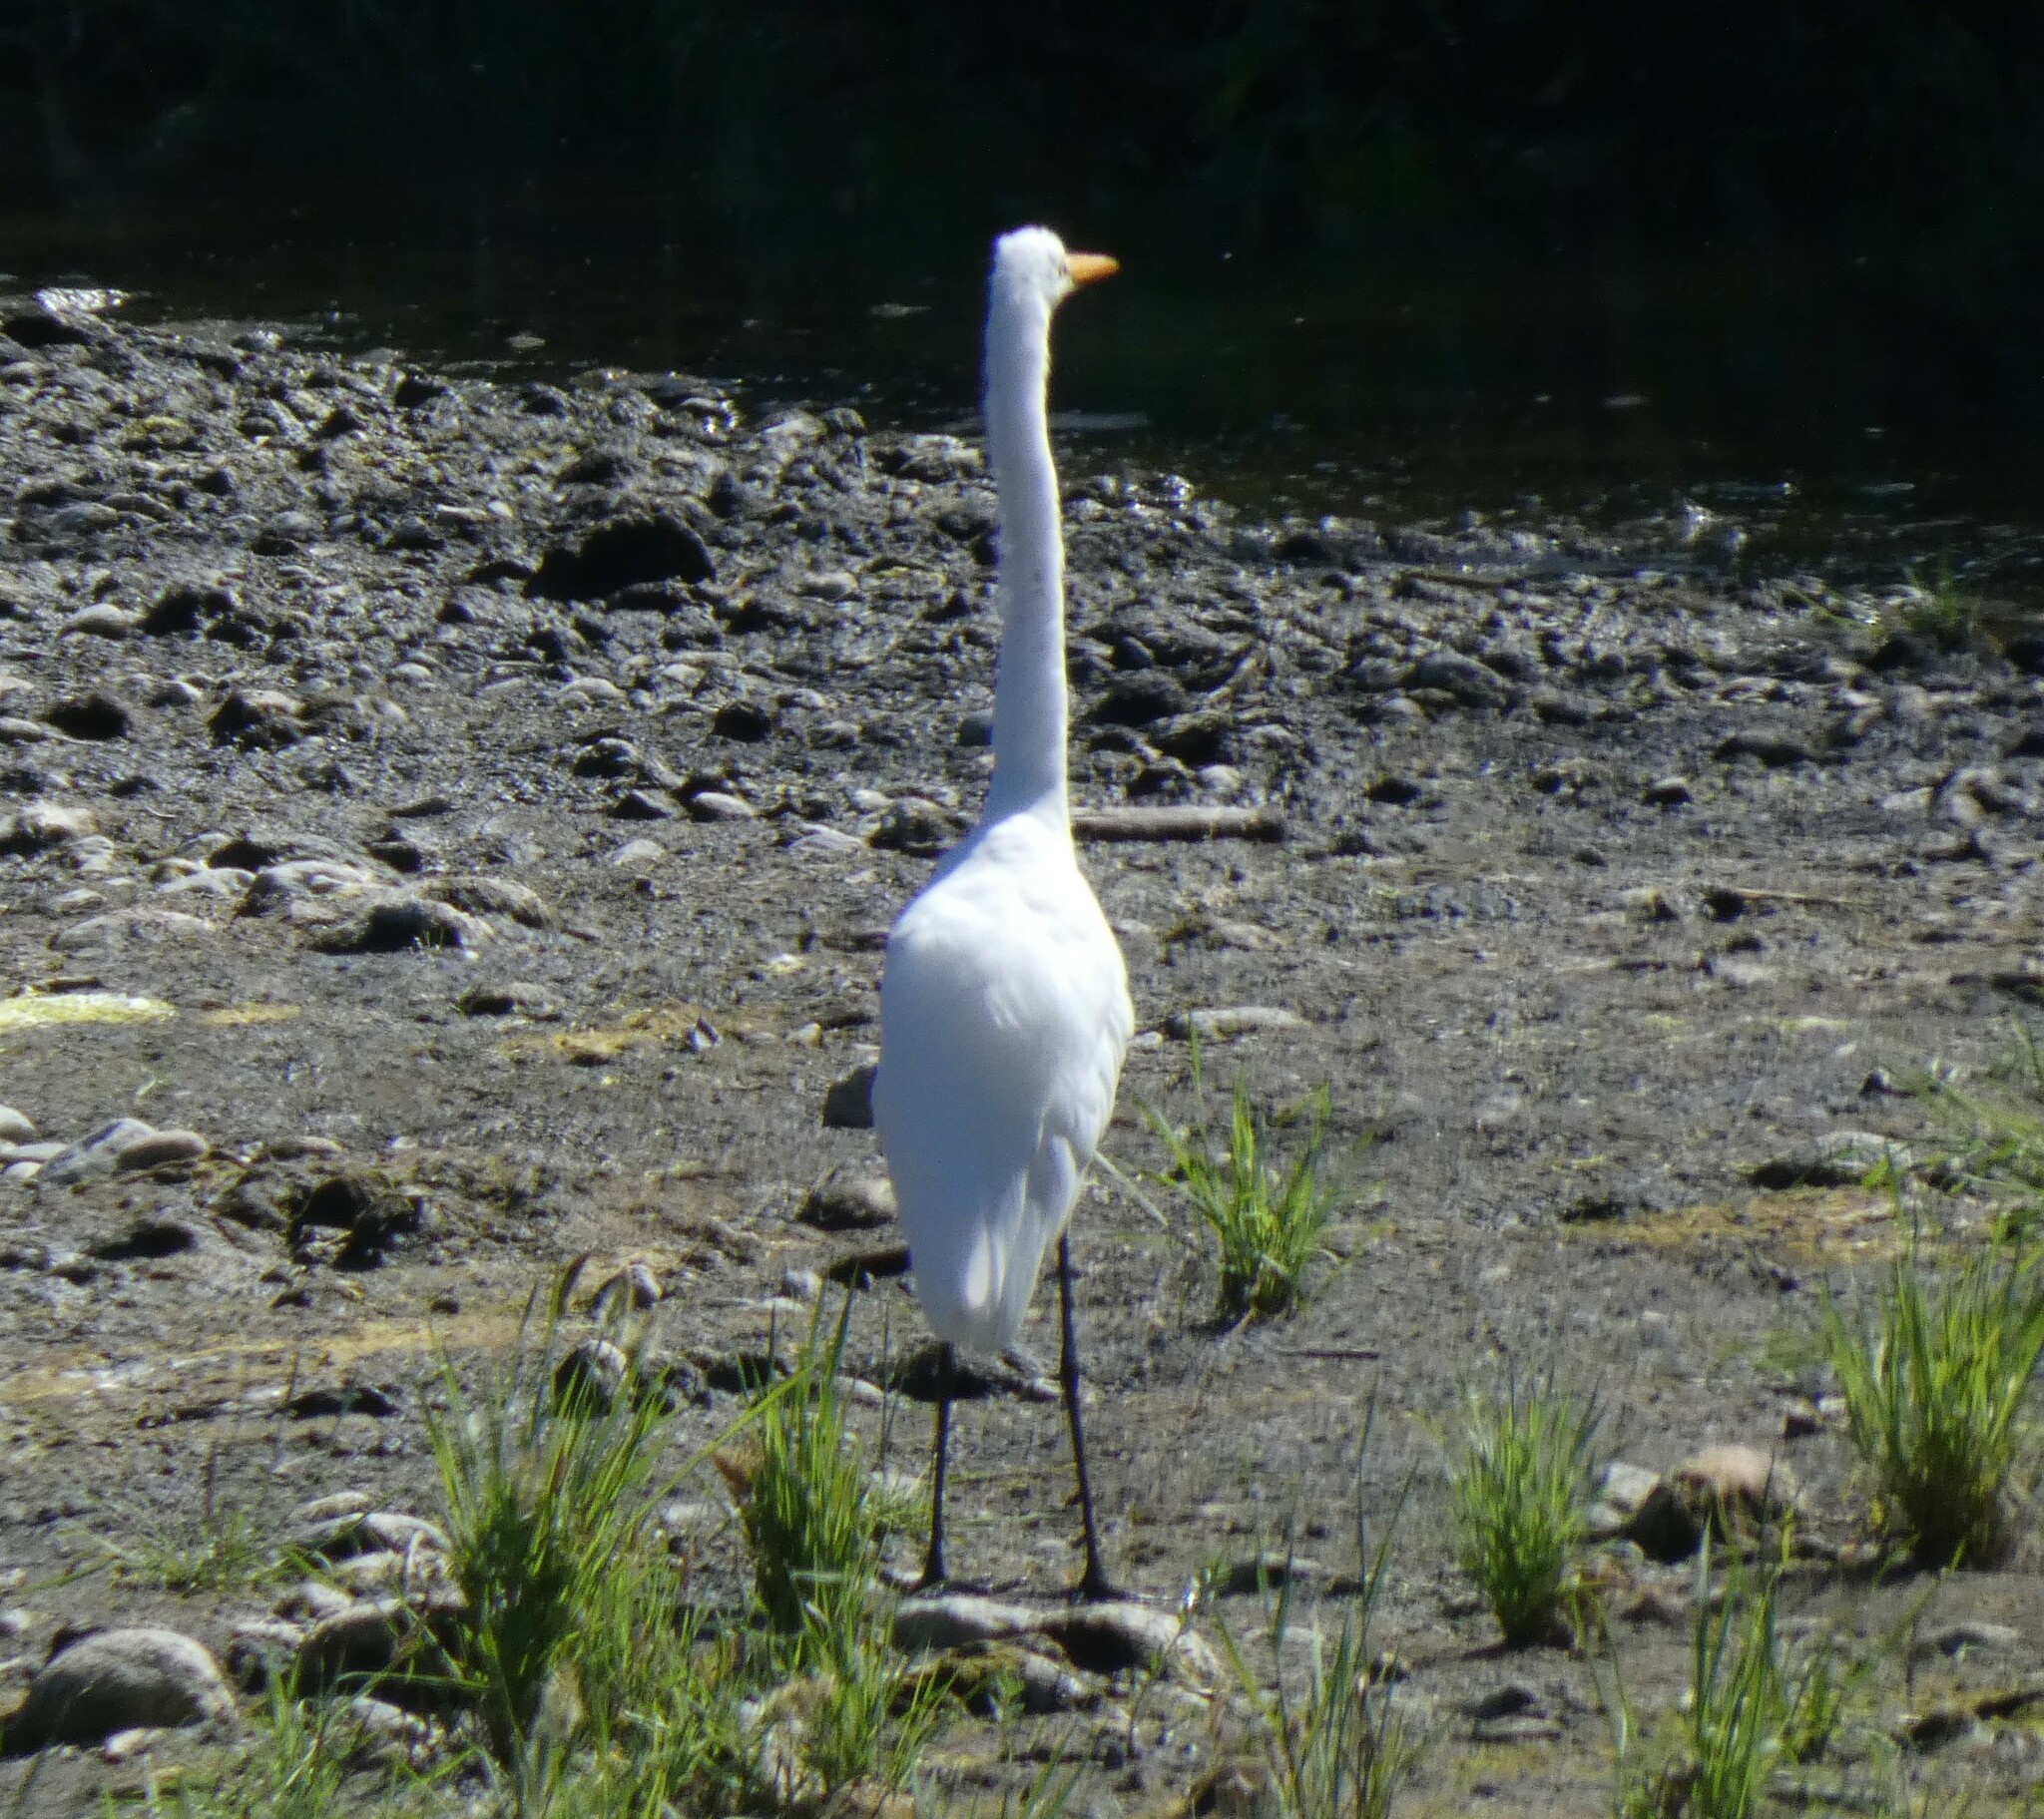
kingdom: Animalia
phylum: Chordata
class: Aves
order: Pelecaniformes
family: Ardeidae
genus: Ardea
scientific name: Ardea alba
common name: Great egret
